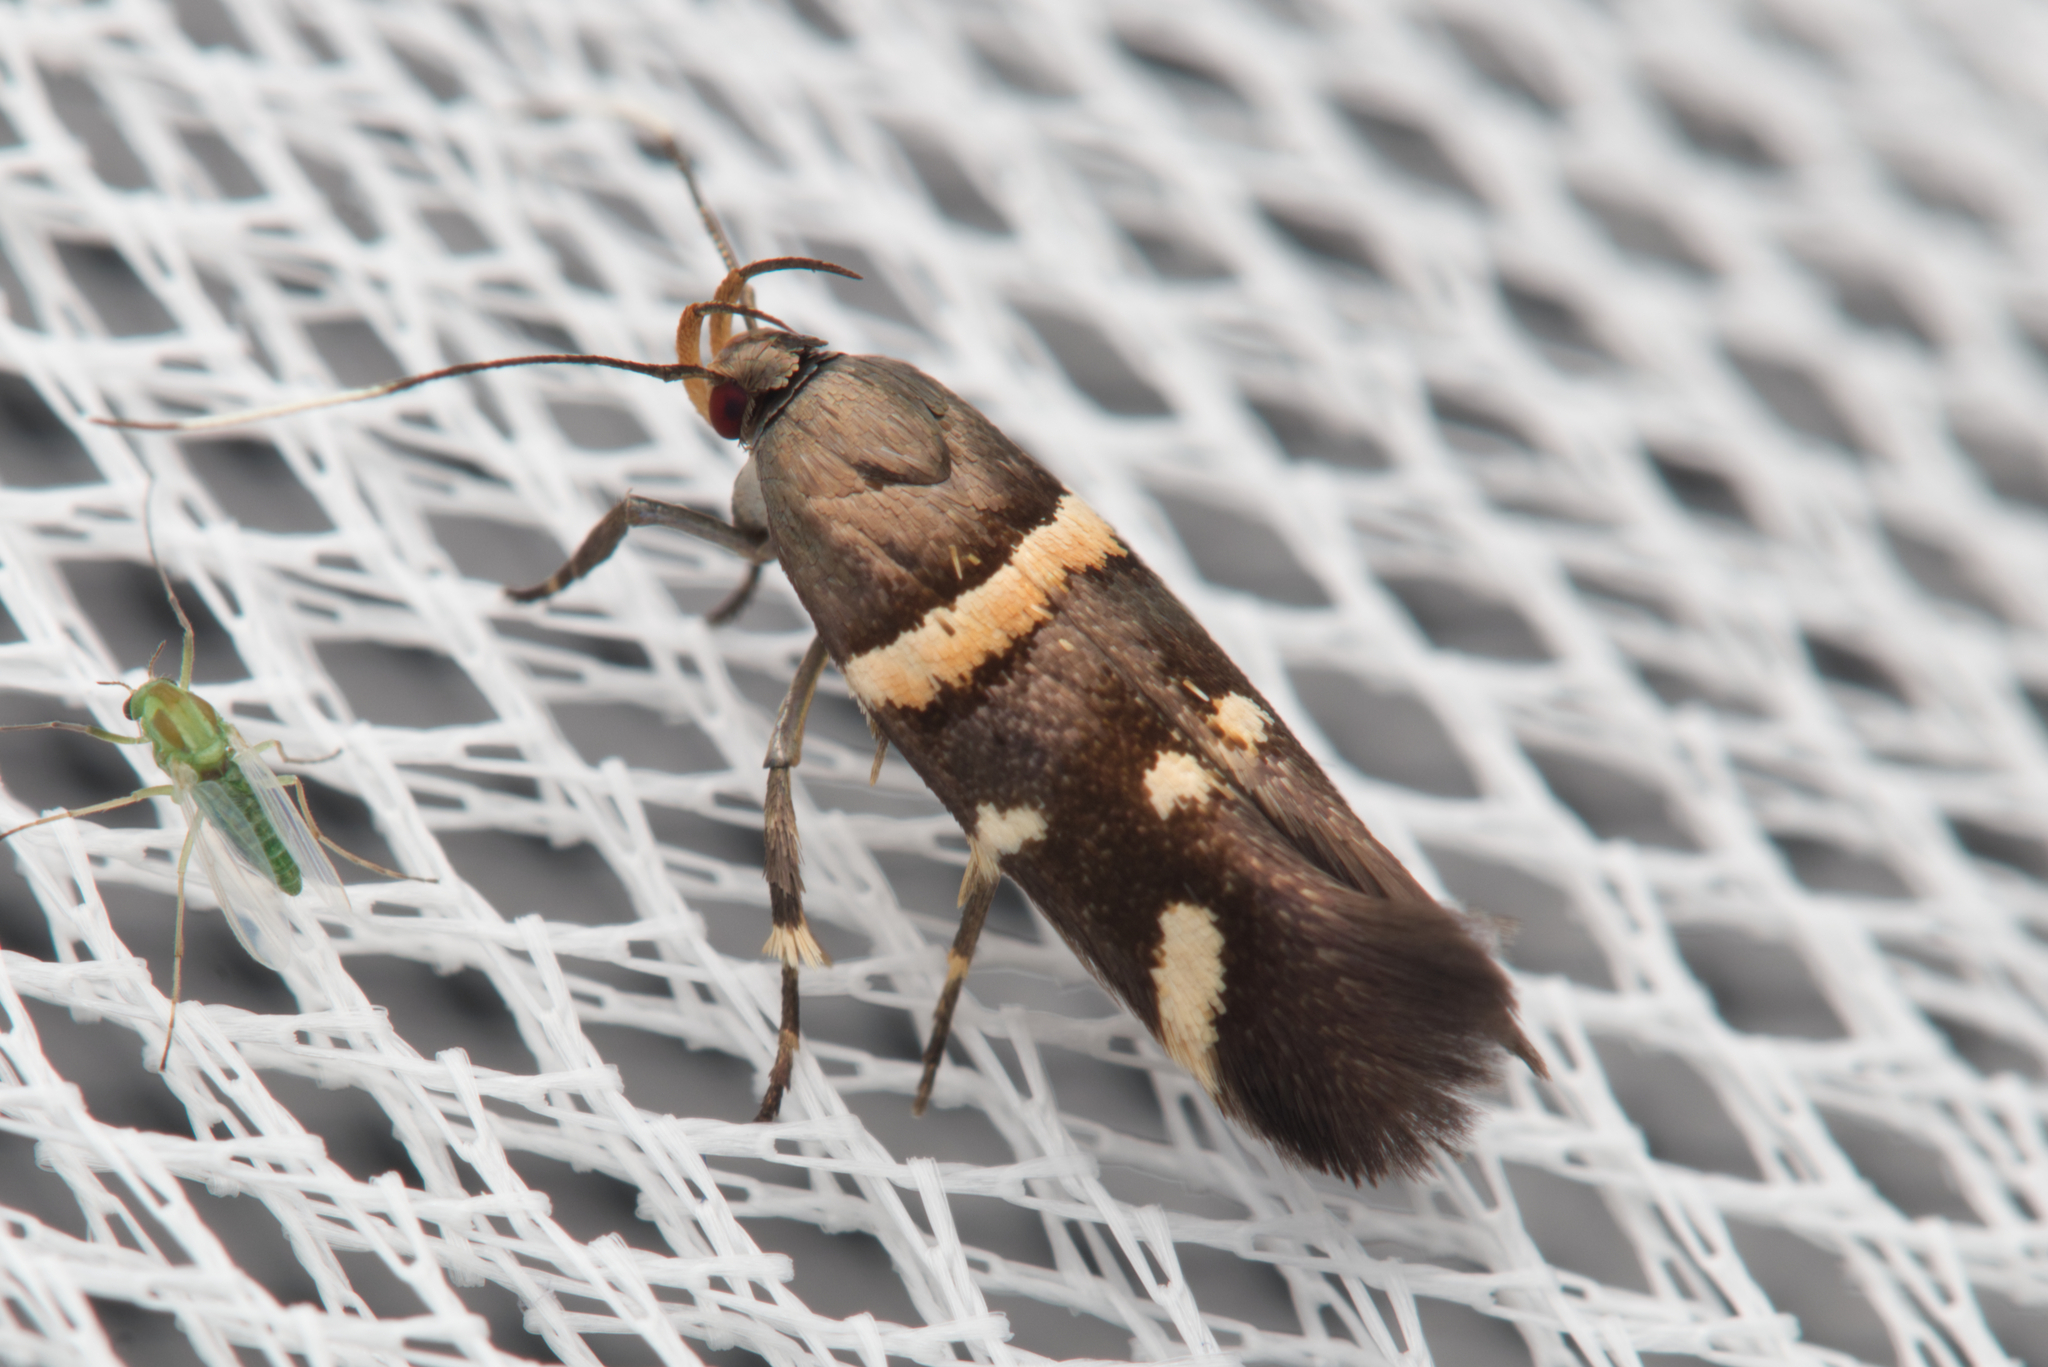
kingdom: Animalia
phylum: Arthropoda
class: Insecta
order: Lepidoptera
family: Cosmopterigidae
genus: Macrobathra
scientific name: Macrobathra alternatella
